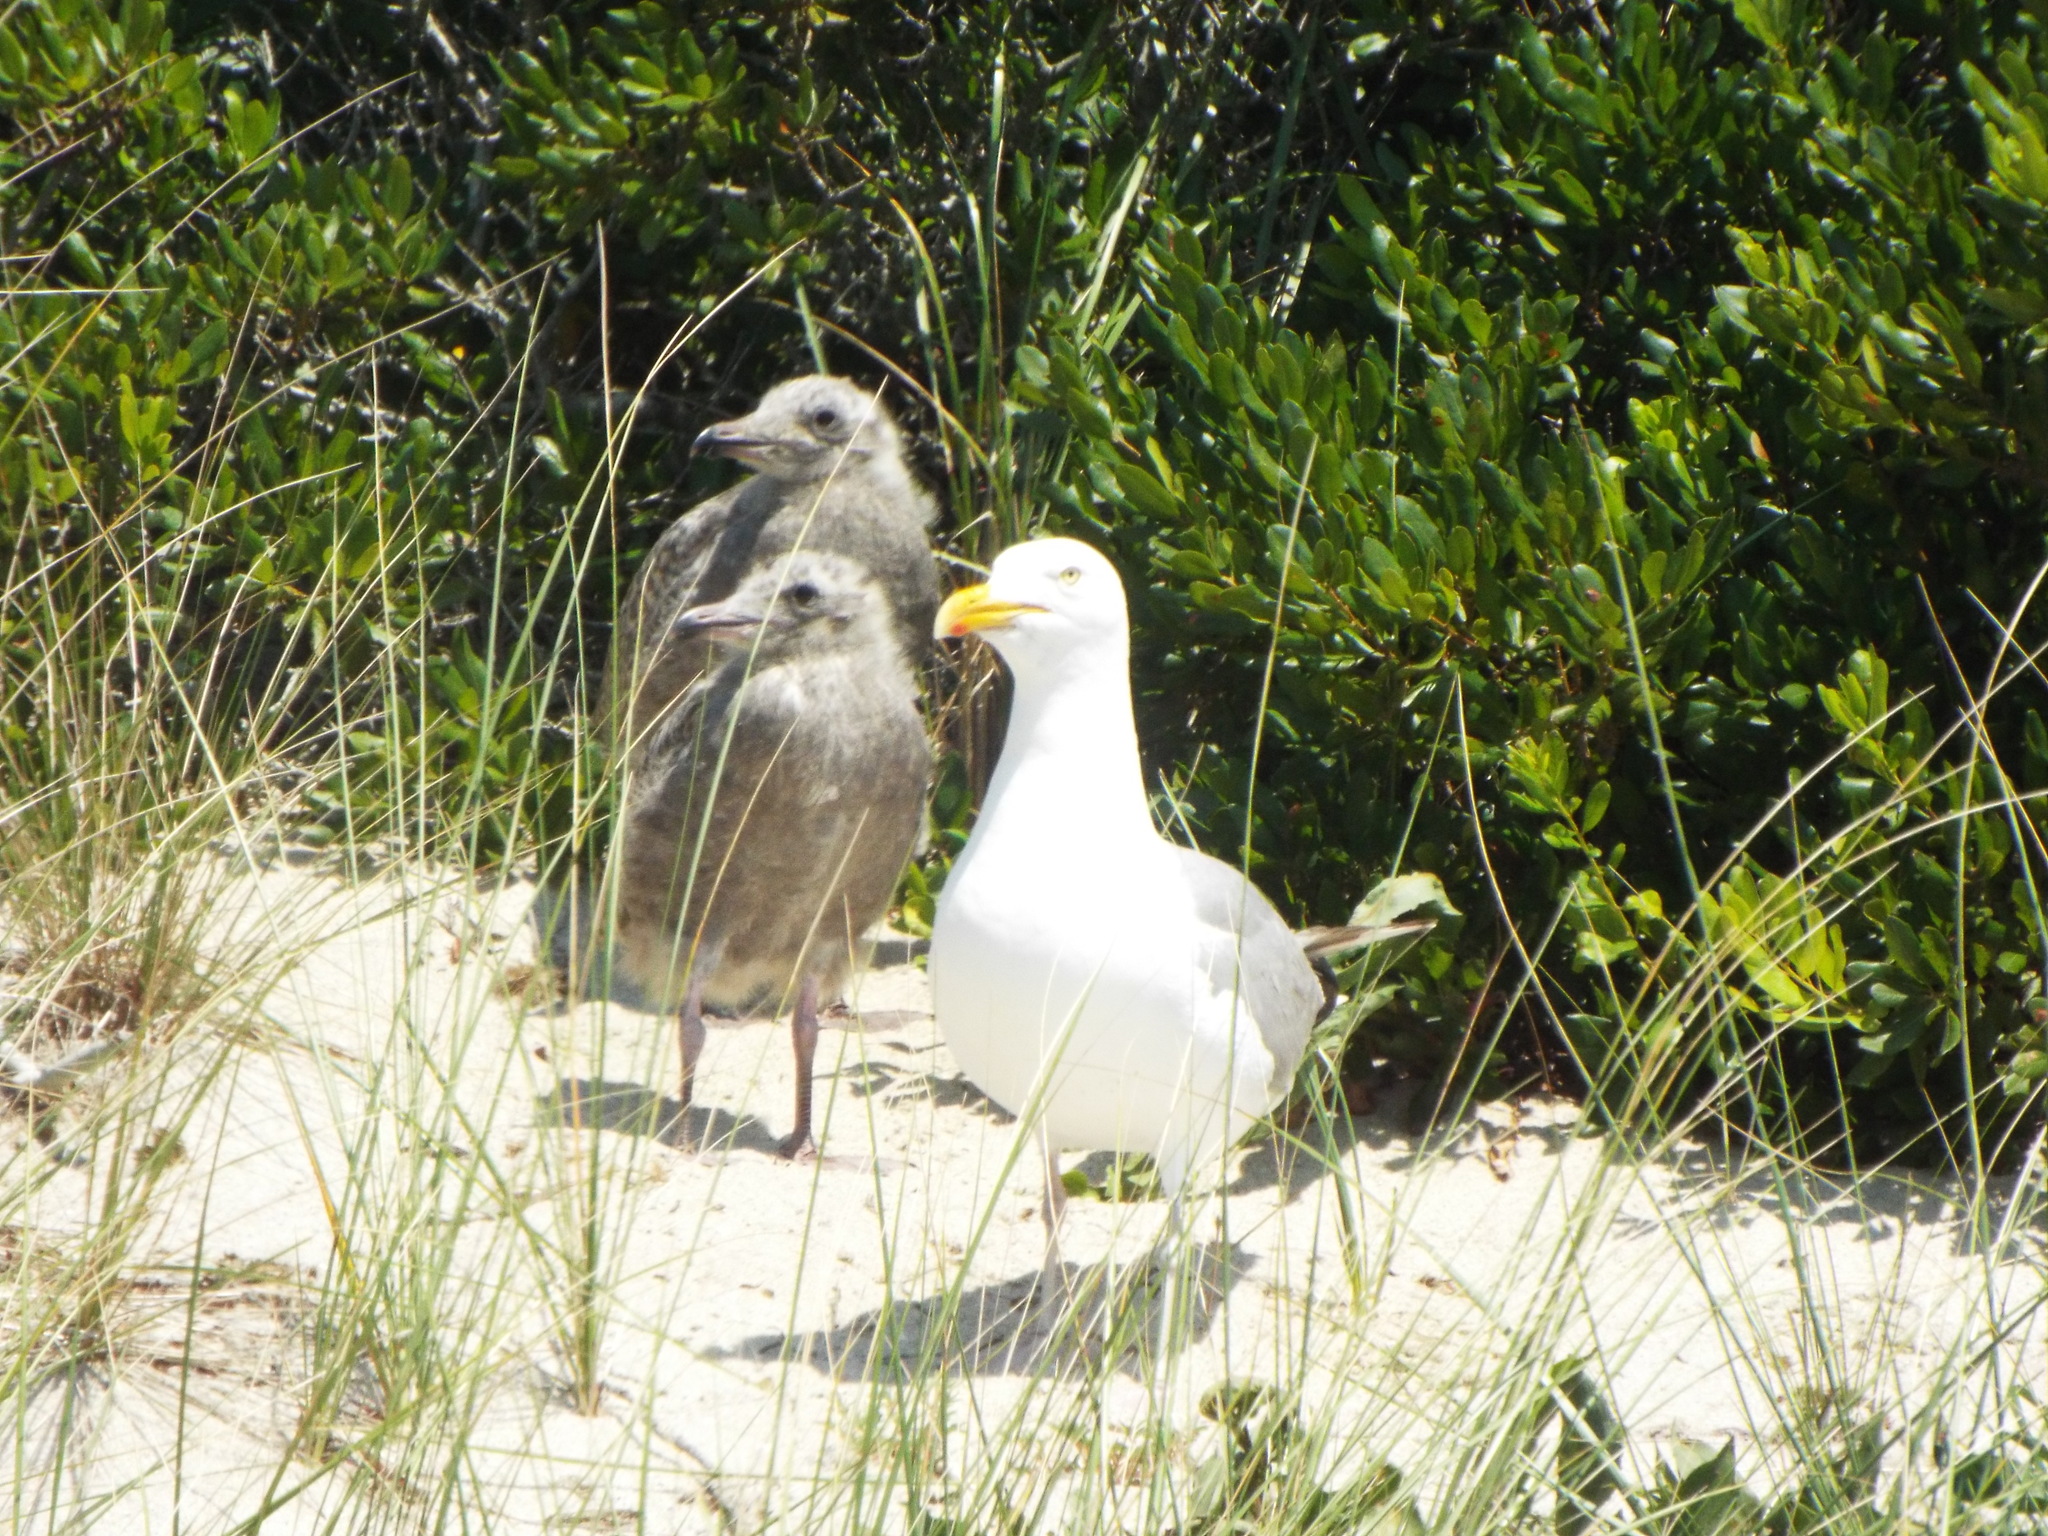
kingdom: Animalia
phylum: Chordata
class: Aves
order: Charadriiformes
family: Laridae
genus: Larus
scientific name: Larus argentatus
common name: Herring gull
